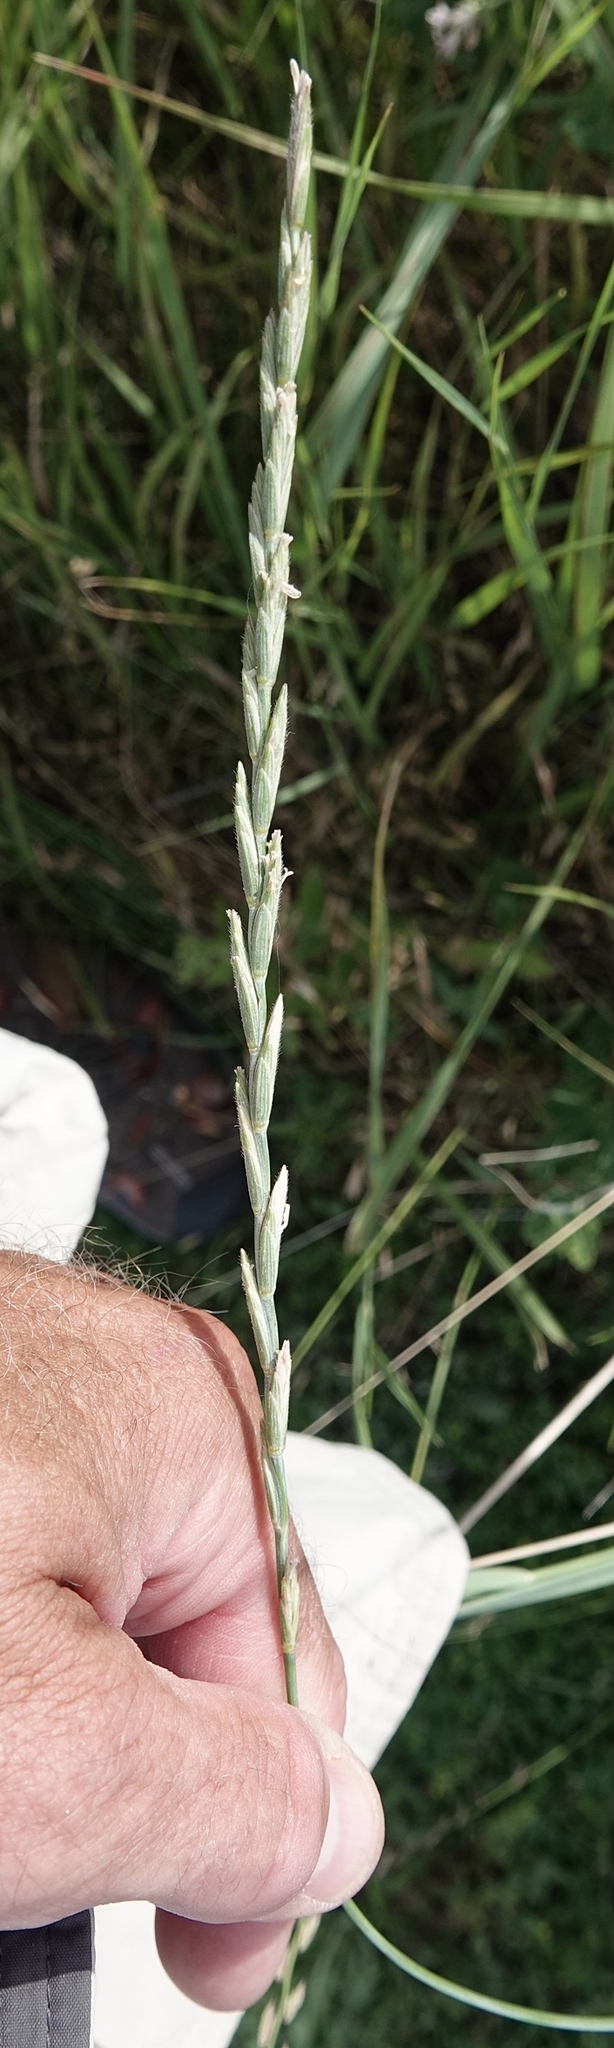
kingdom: Plantae
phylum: Tracheophyta
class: Liliopsida
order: Poales
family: Poaceae
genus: Thinopyrum
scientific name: Thinopyrum intermedium
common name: Intermediate wheatgrass
